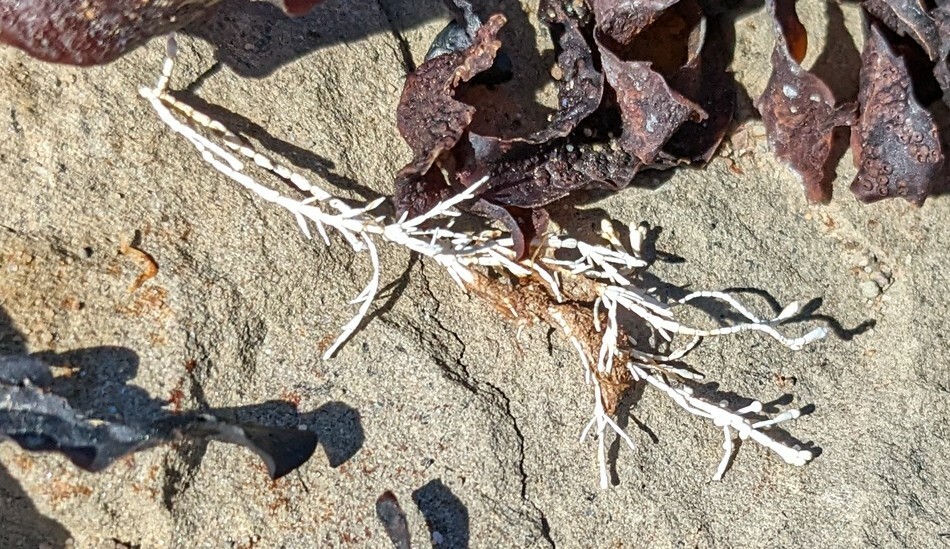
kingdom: Plantae
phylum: Rhodophyta
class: Florideophyceae
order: Corallinales
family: Corallinaceae
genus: Corallina
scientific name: Corallina officinalis
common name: Coral weed
